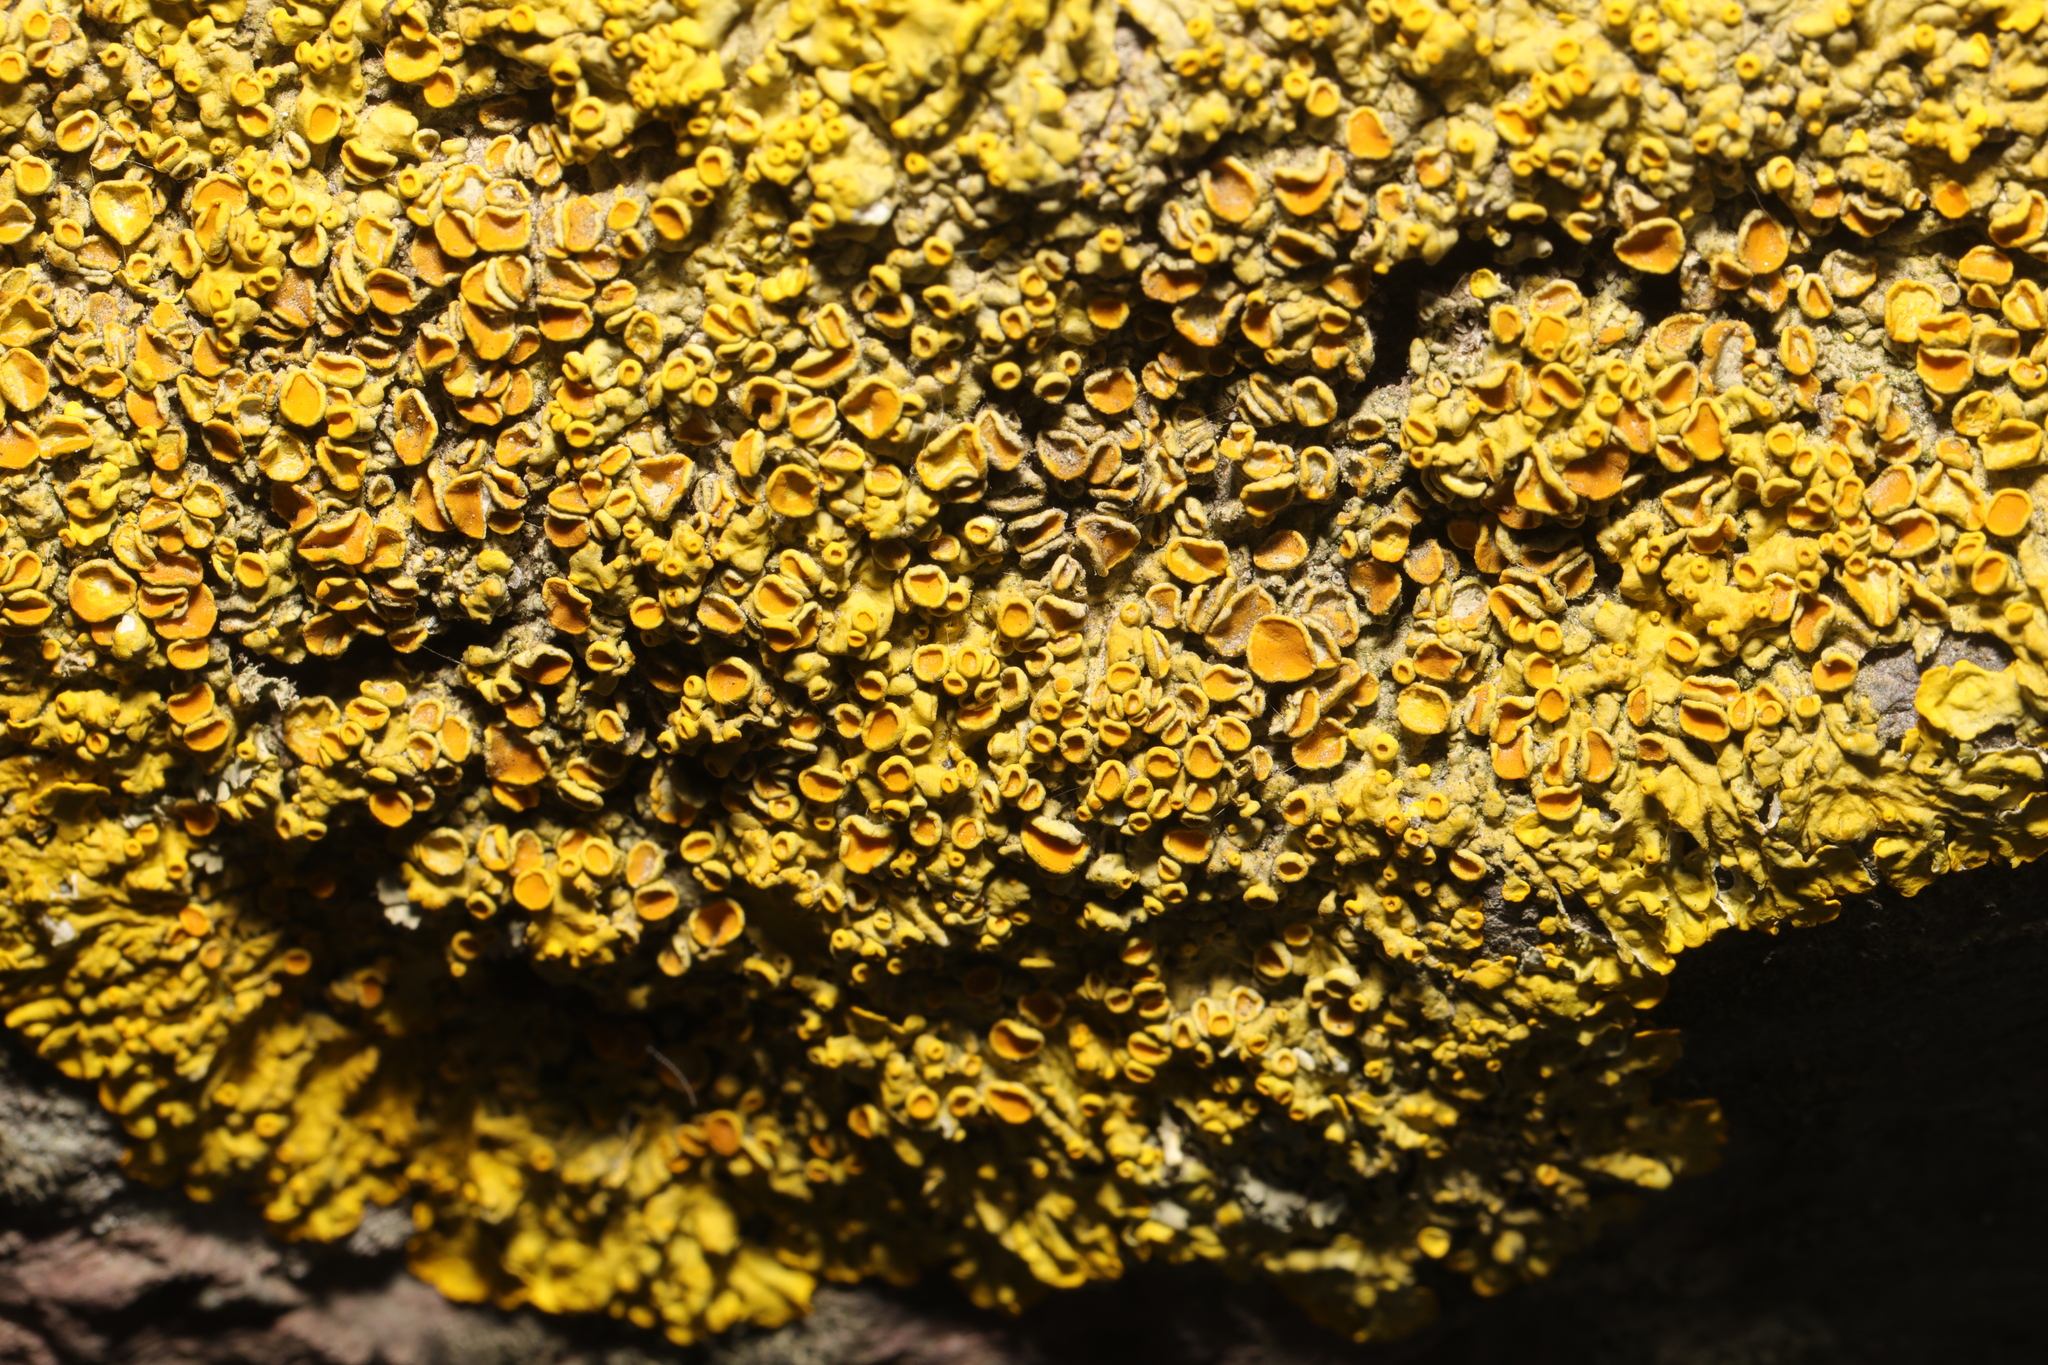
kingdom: Fungi
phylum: Ascomycota
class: Lecanoromycetes
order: Teloschistales
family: Teloschistaceae
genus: Xanthoria
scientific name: Xanthoria parietina
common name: Common orange lichen
